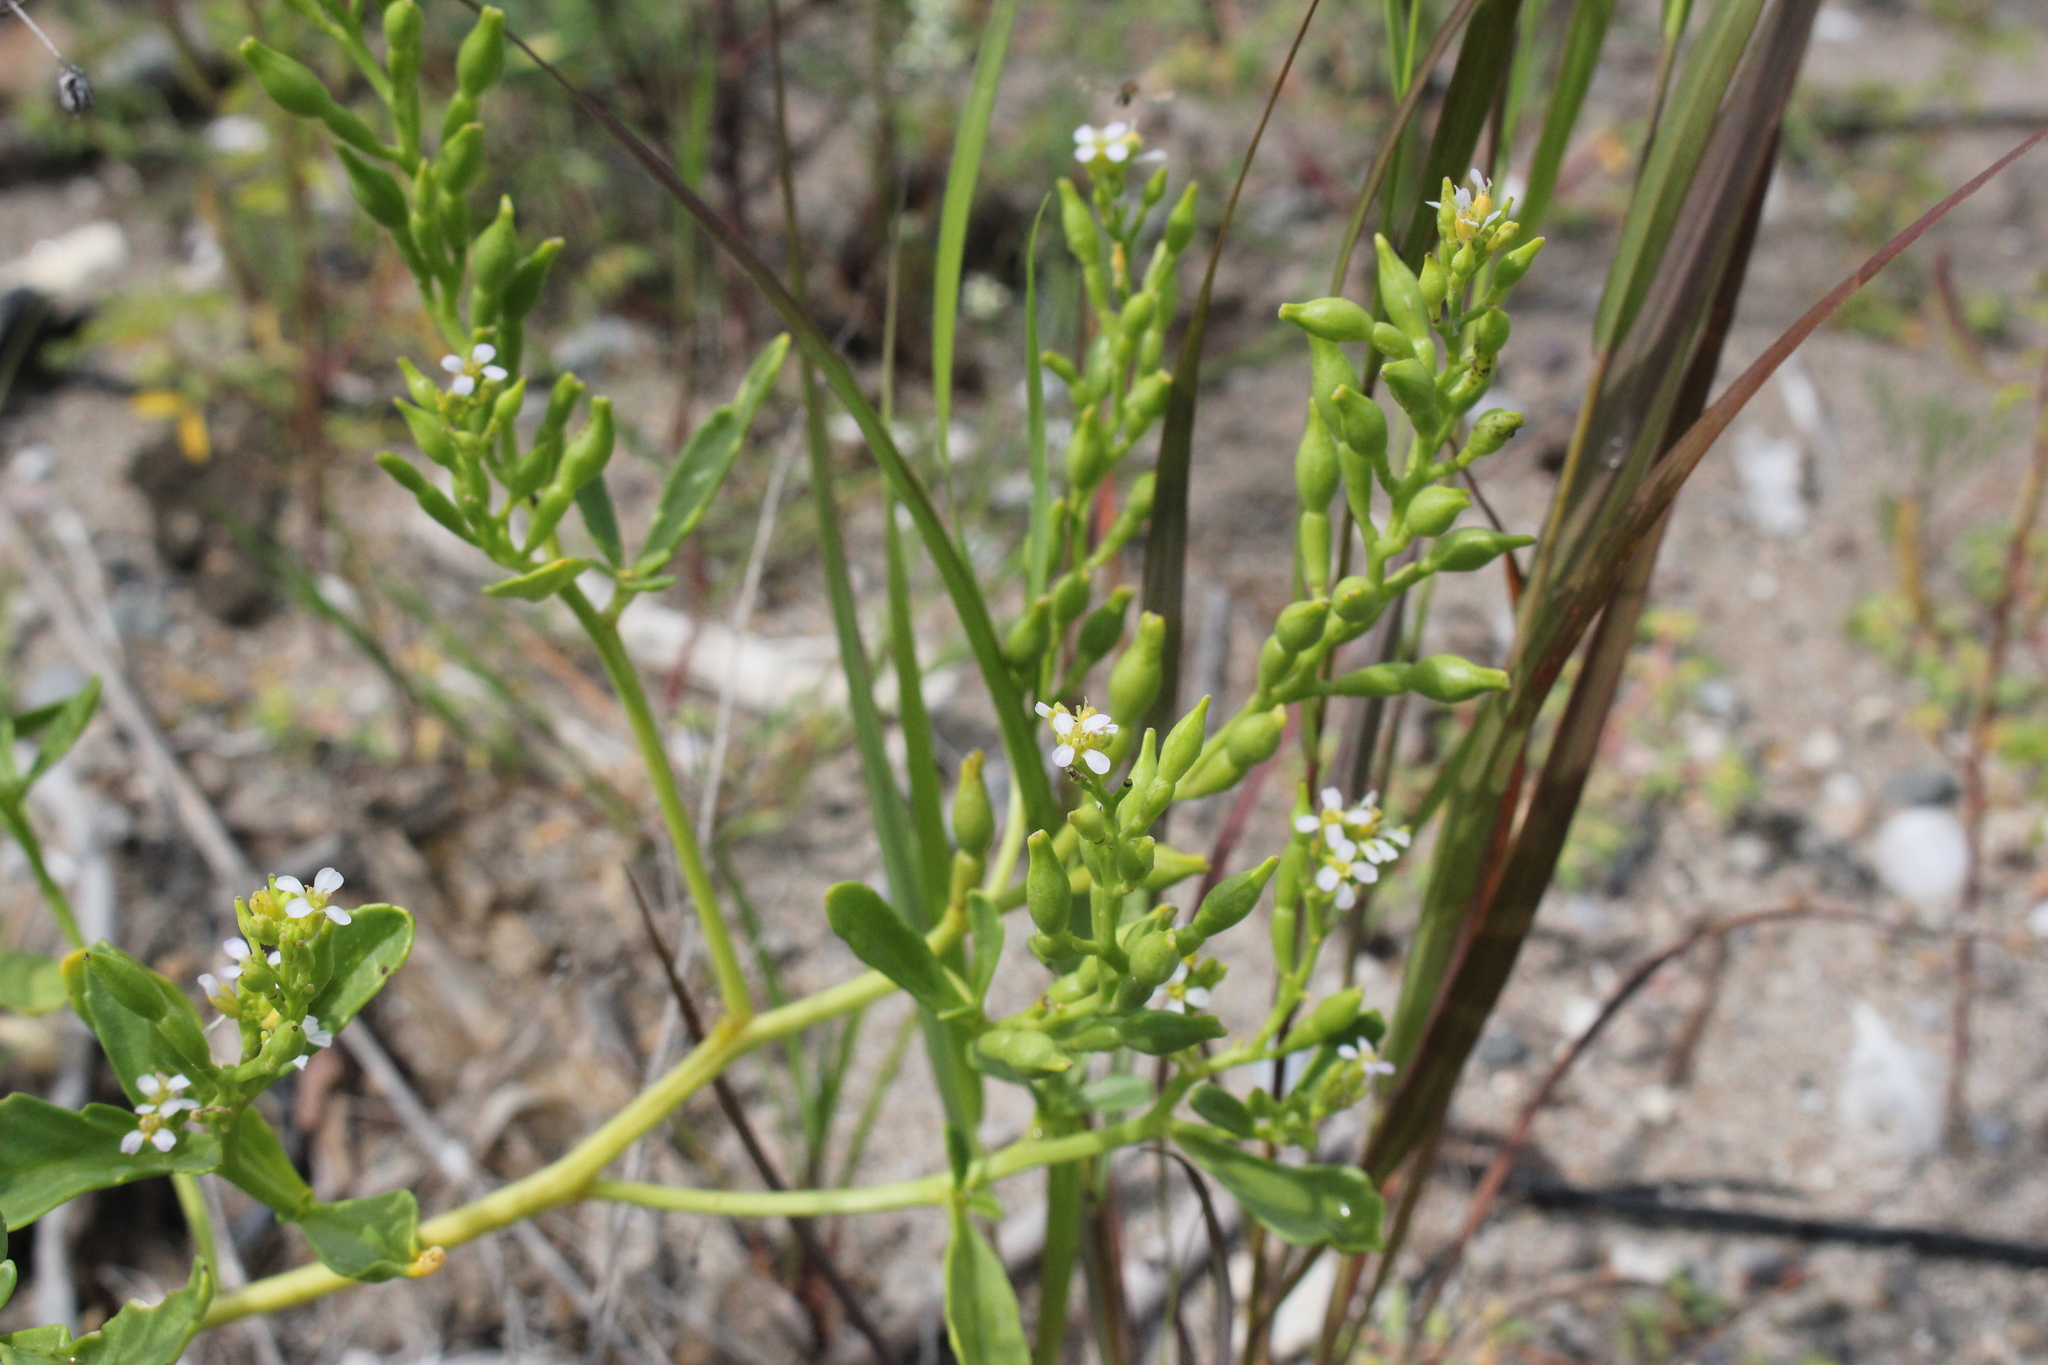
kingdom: Plantae
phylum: Tracheophyta
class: Magnoliopsida
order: Brassicales
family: Brassicaceae
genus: Cakile
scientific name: Cakile edentula
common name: American sea rocket
